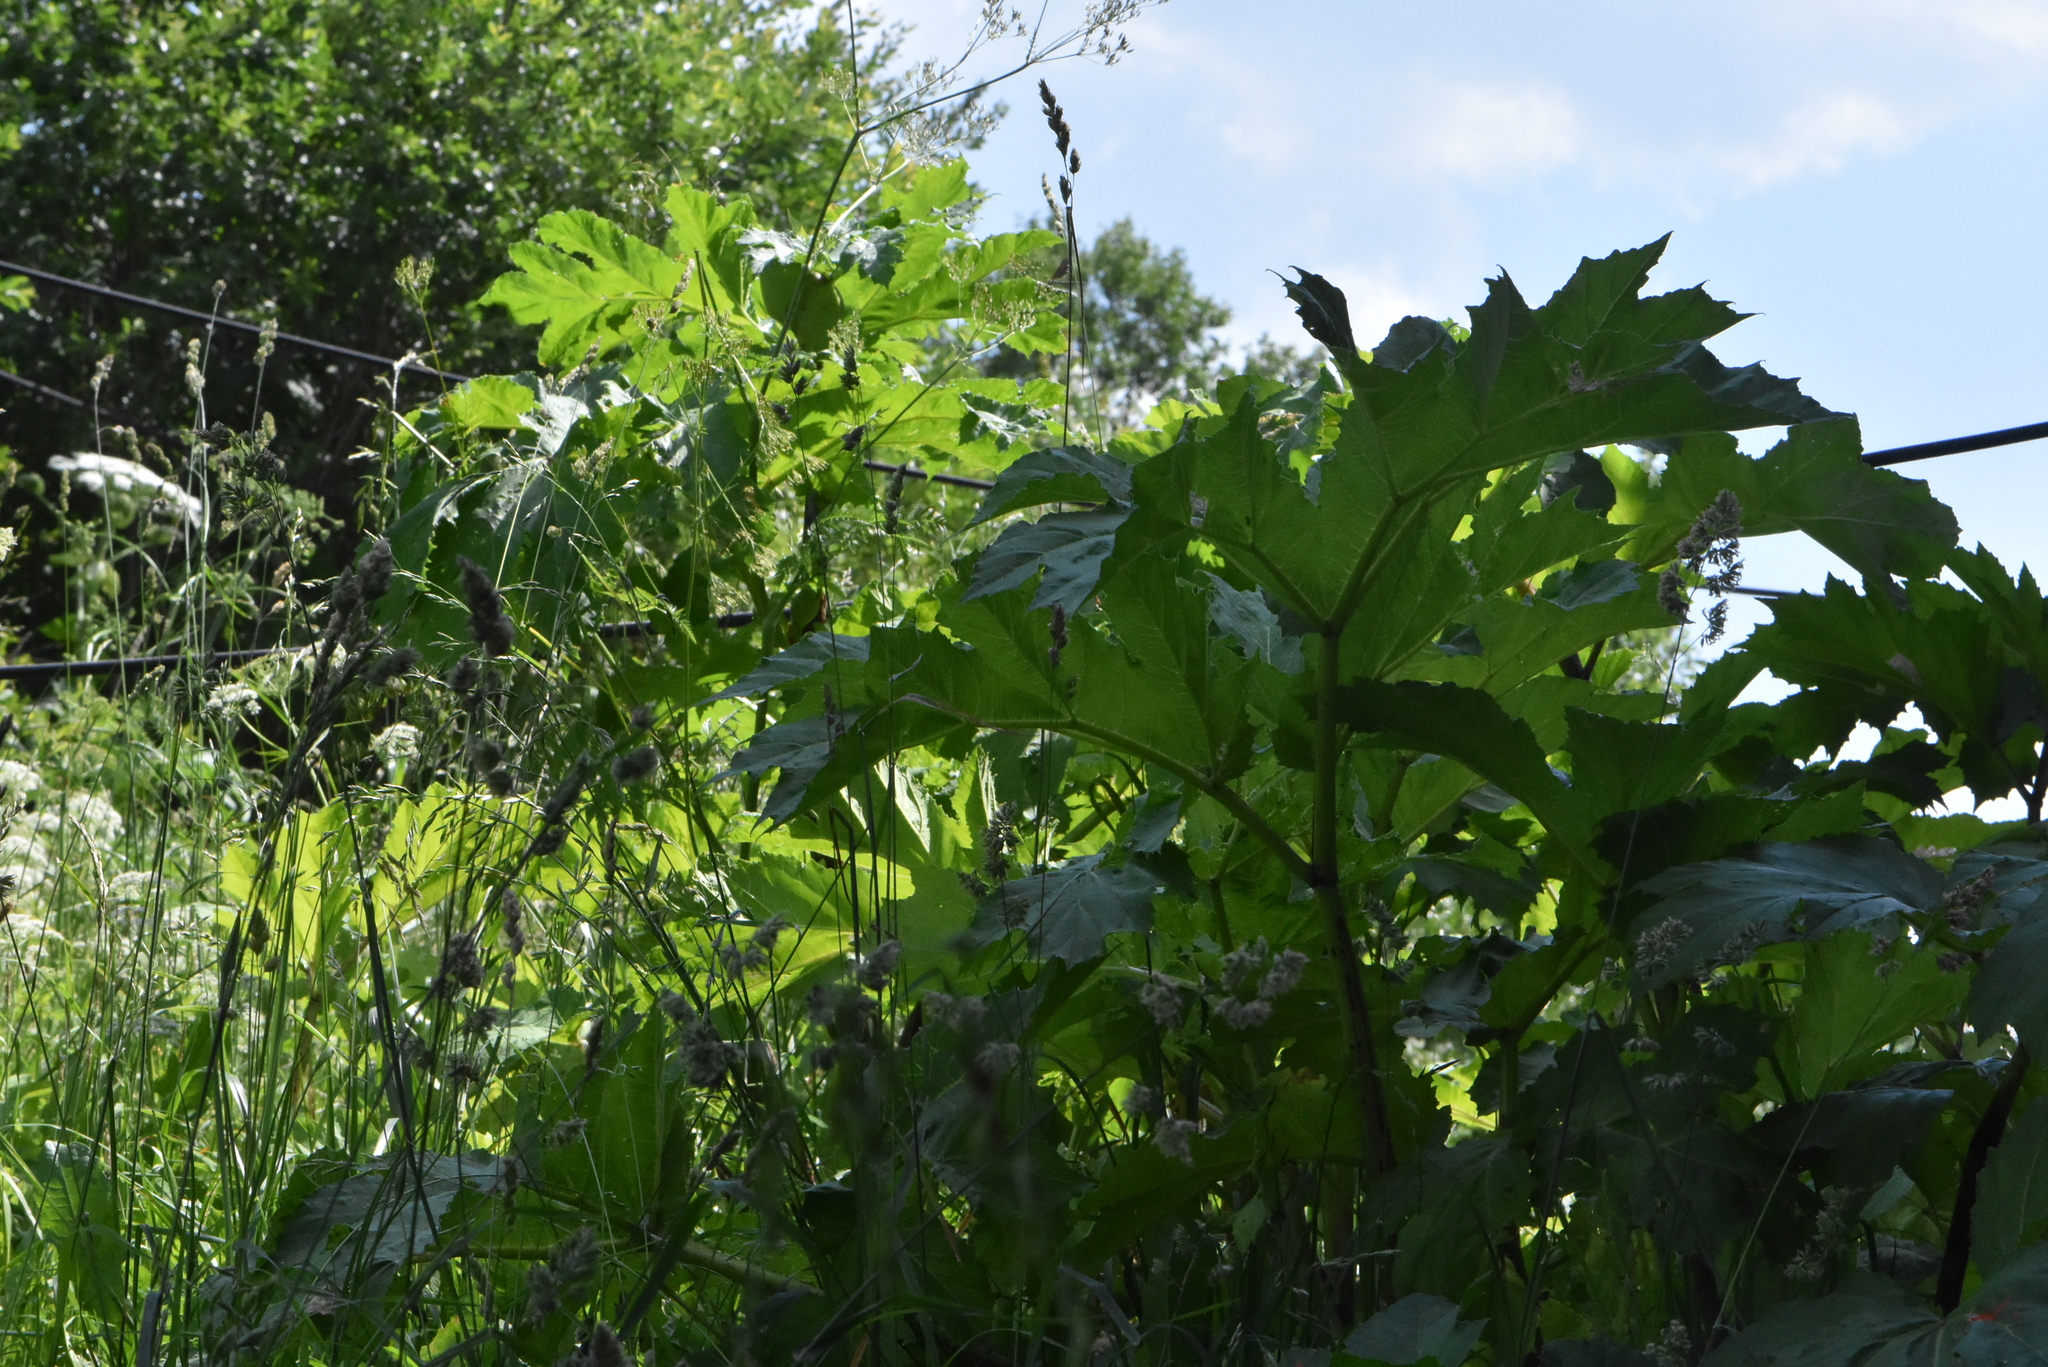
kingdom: Plantae
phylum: Tracheophyta
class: Magnoliopsida
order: Apiales
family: Apiaceae
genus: Heracleum
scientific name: Heracleum sosnowskyi
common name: Sosnowsky's hogweed
